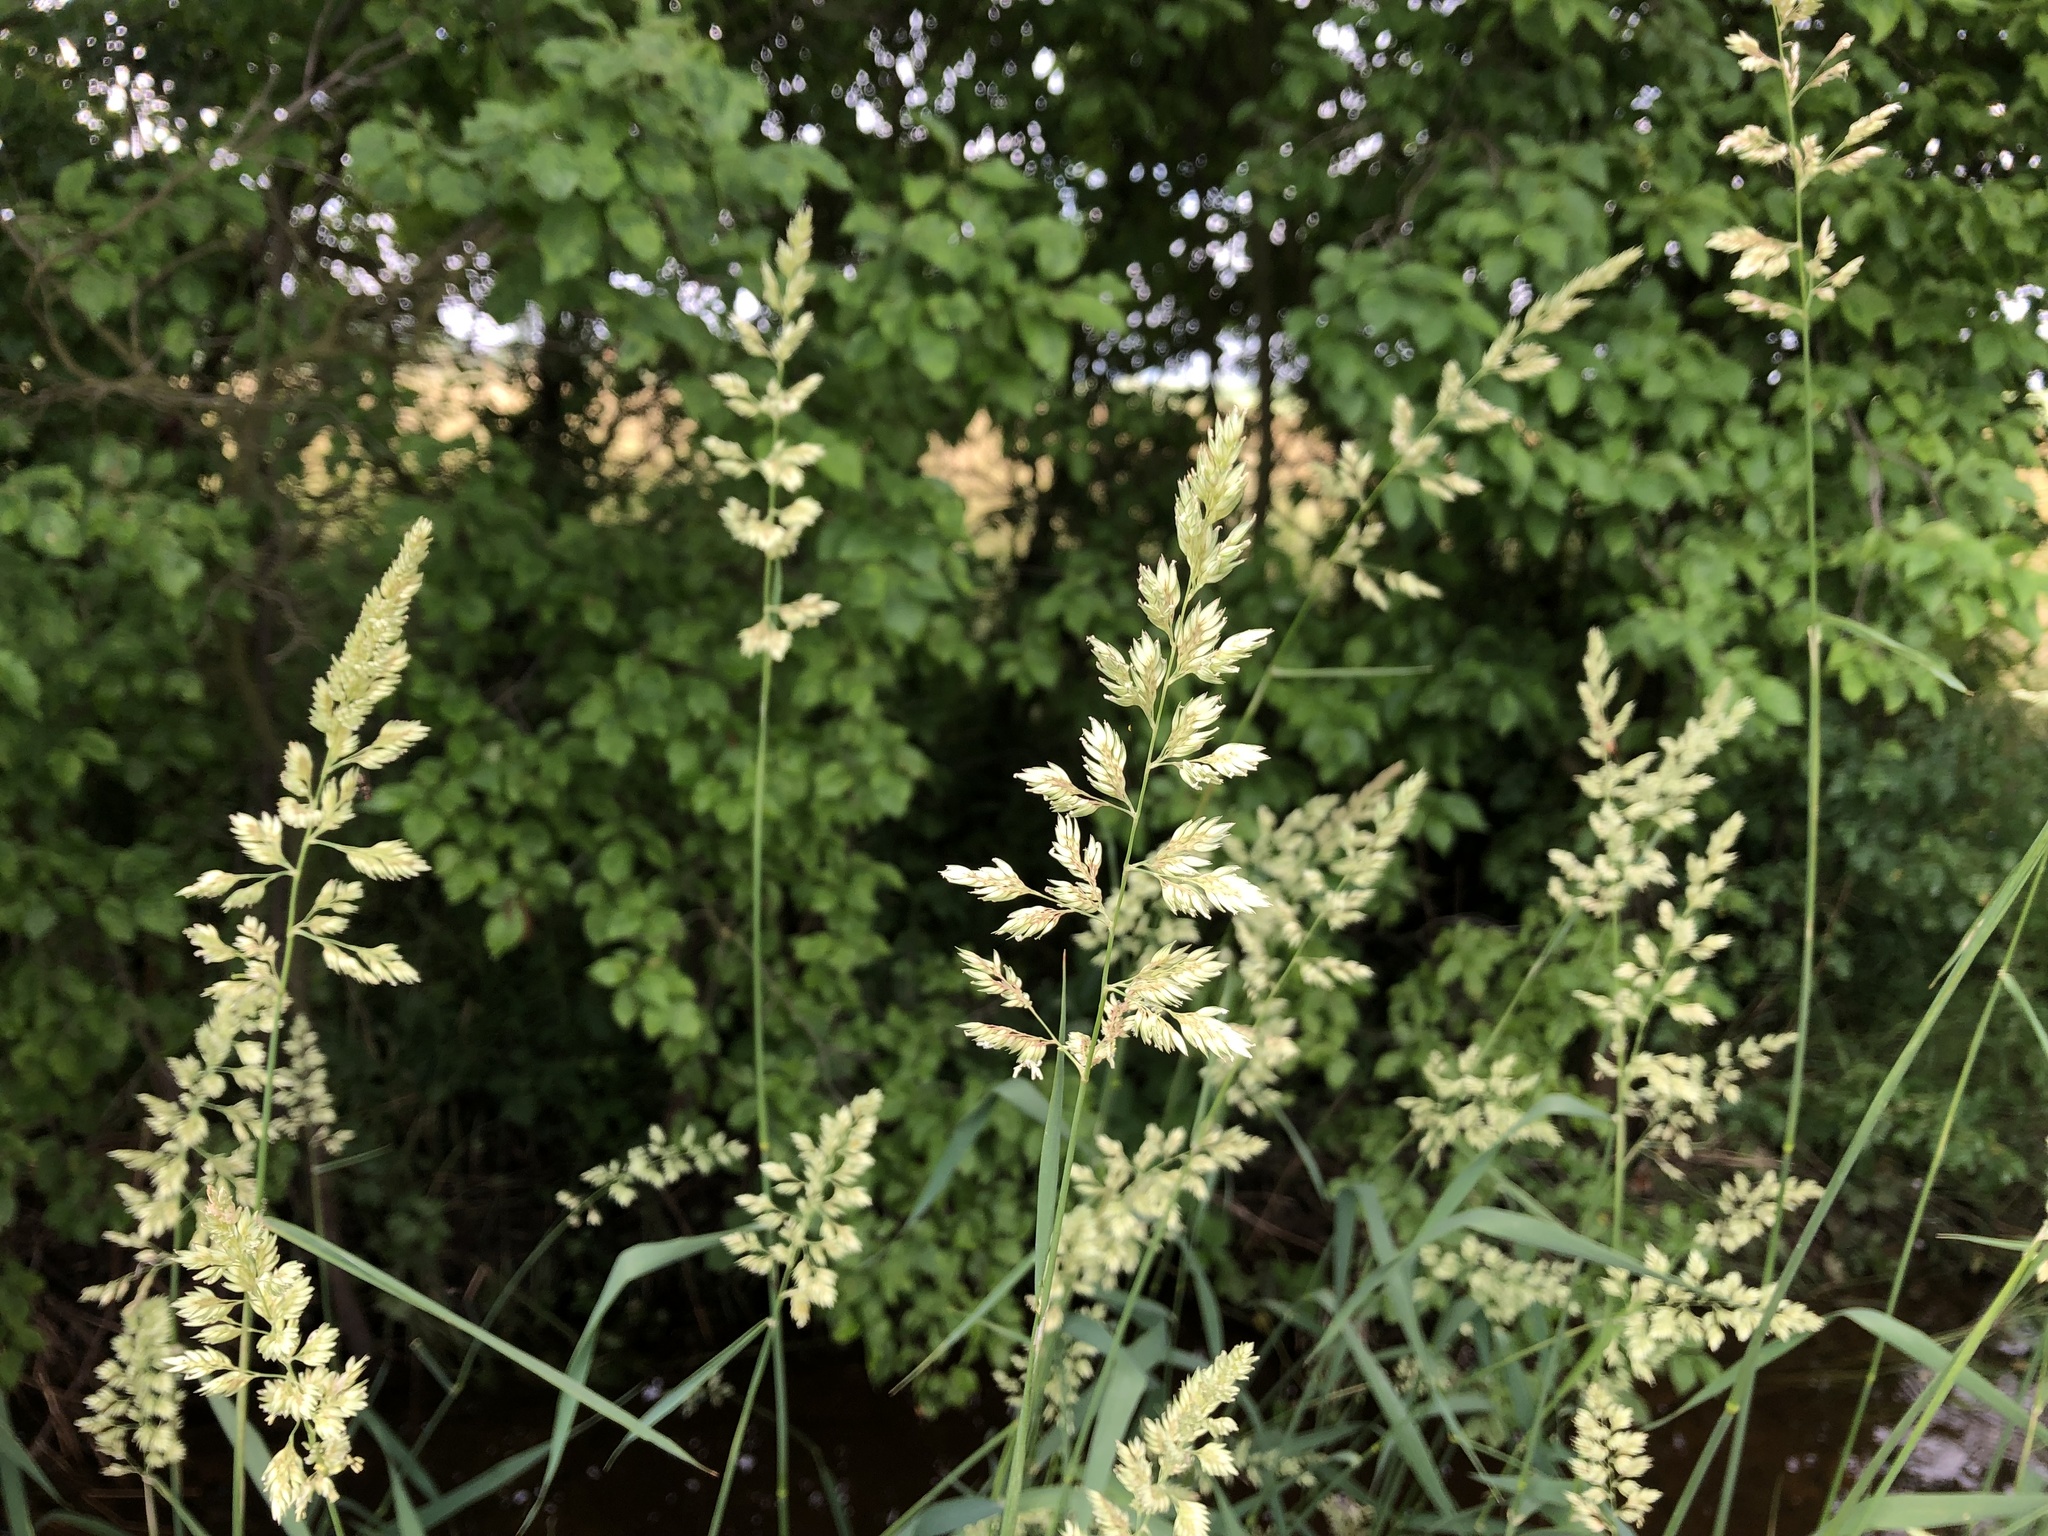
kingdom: Plantae
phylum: Tracheophyta
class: Liliopsida
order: Poales
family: Poaceae
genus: Phalaris
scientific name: Phalaris arundinacea
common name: Reed canary-grass
